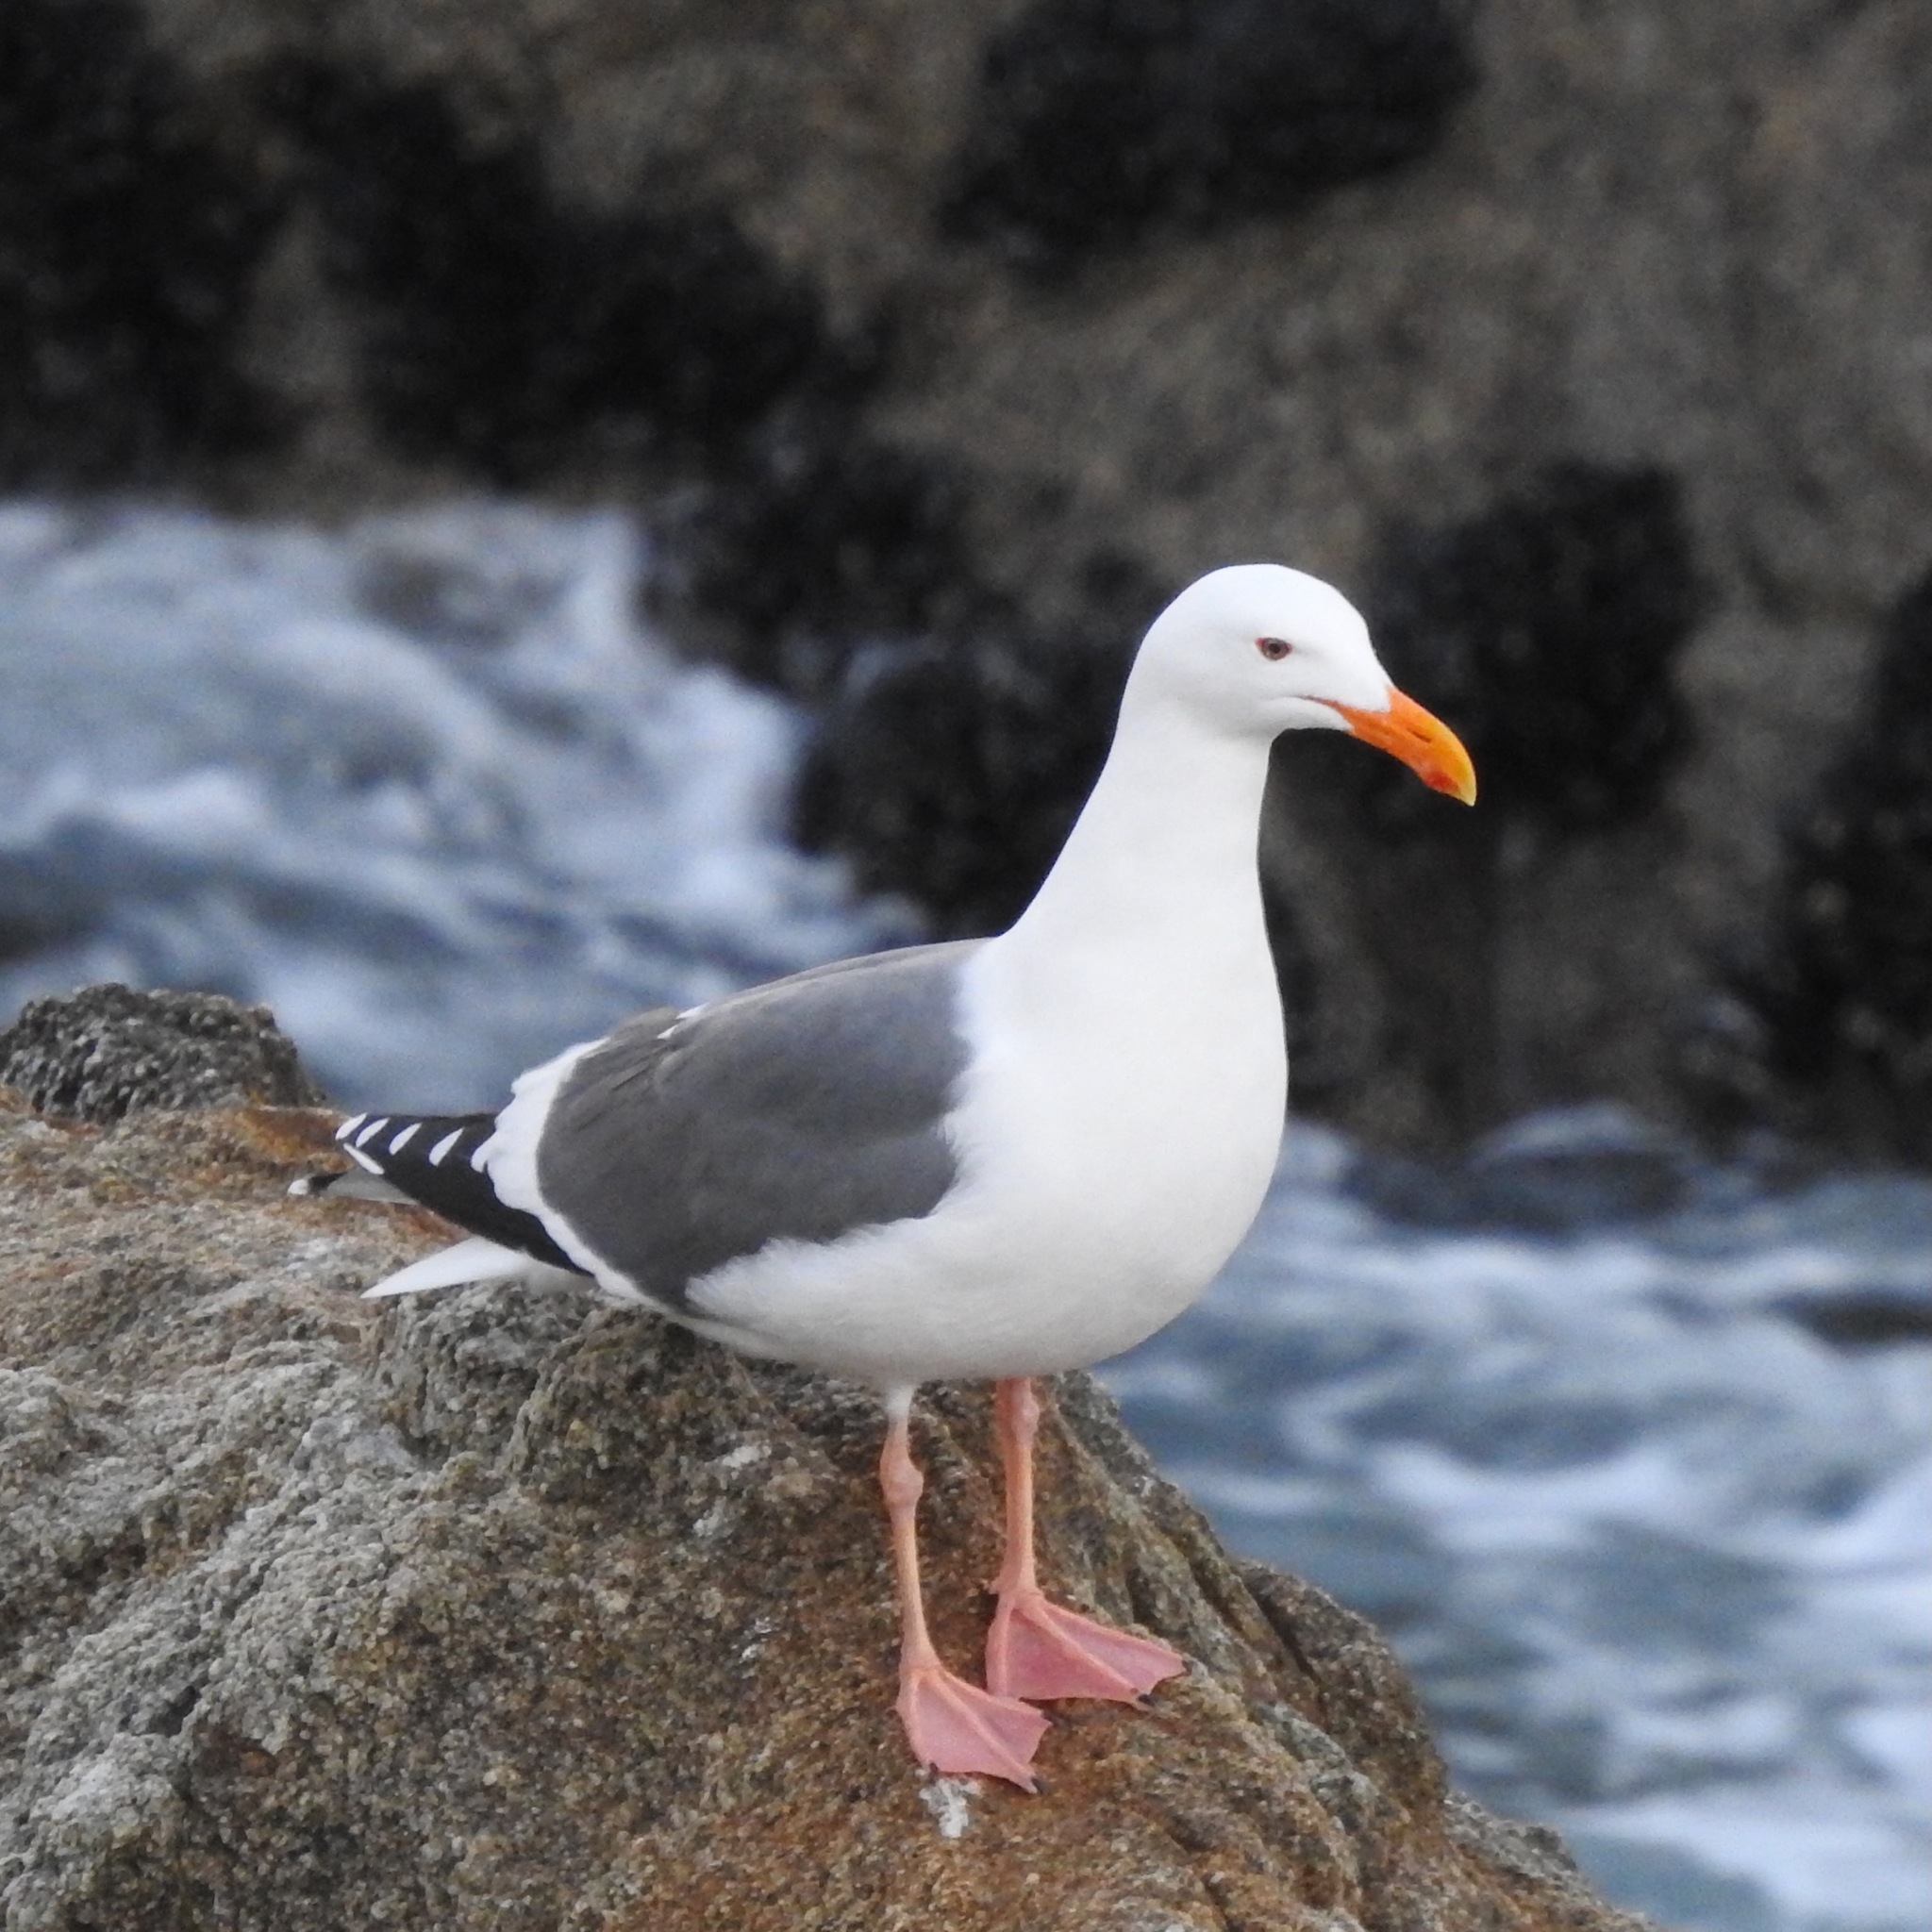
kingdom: Animalia
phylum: Chordata
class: Aves
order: Charadriiformes
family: Laridae
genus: Larus
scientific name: Larus occidentalis
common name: Western gull
